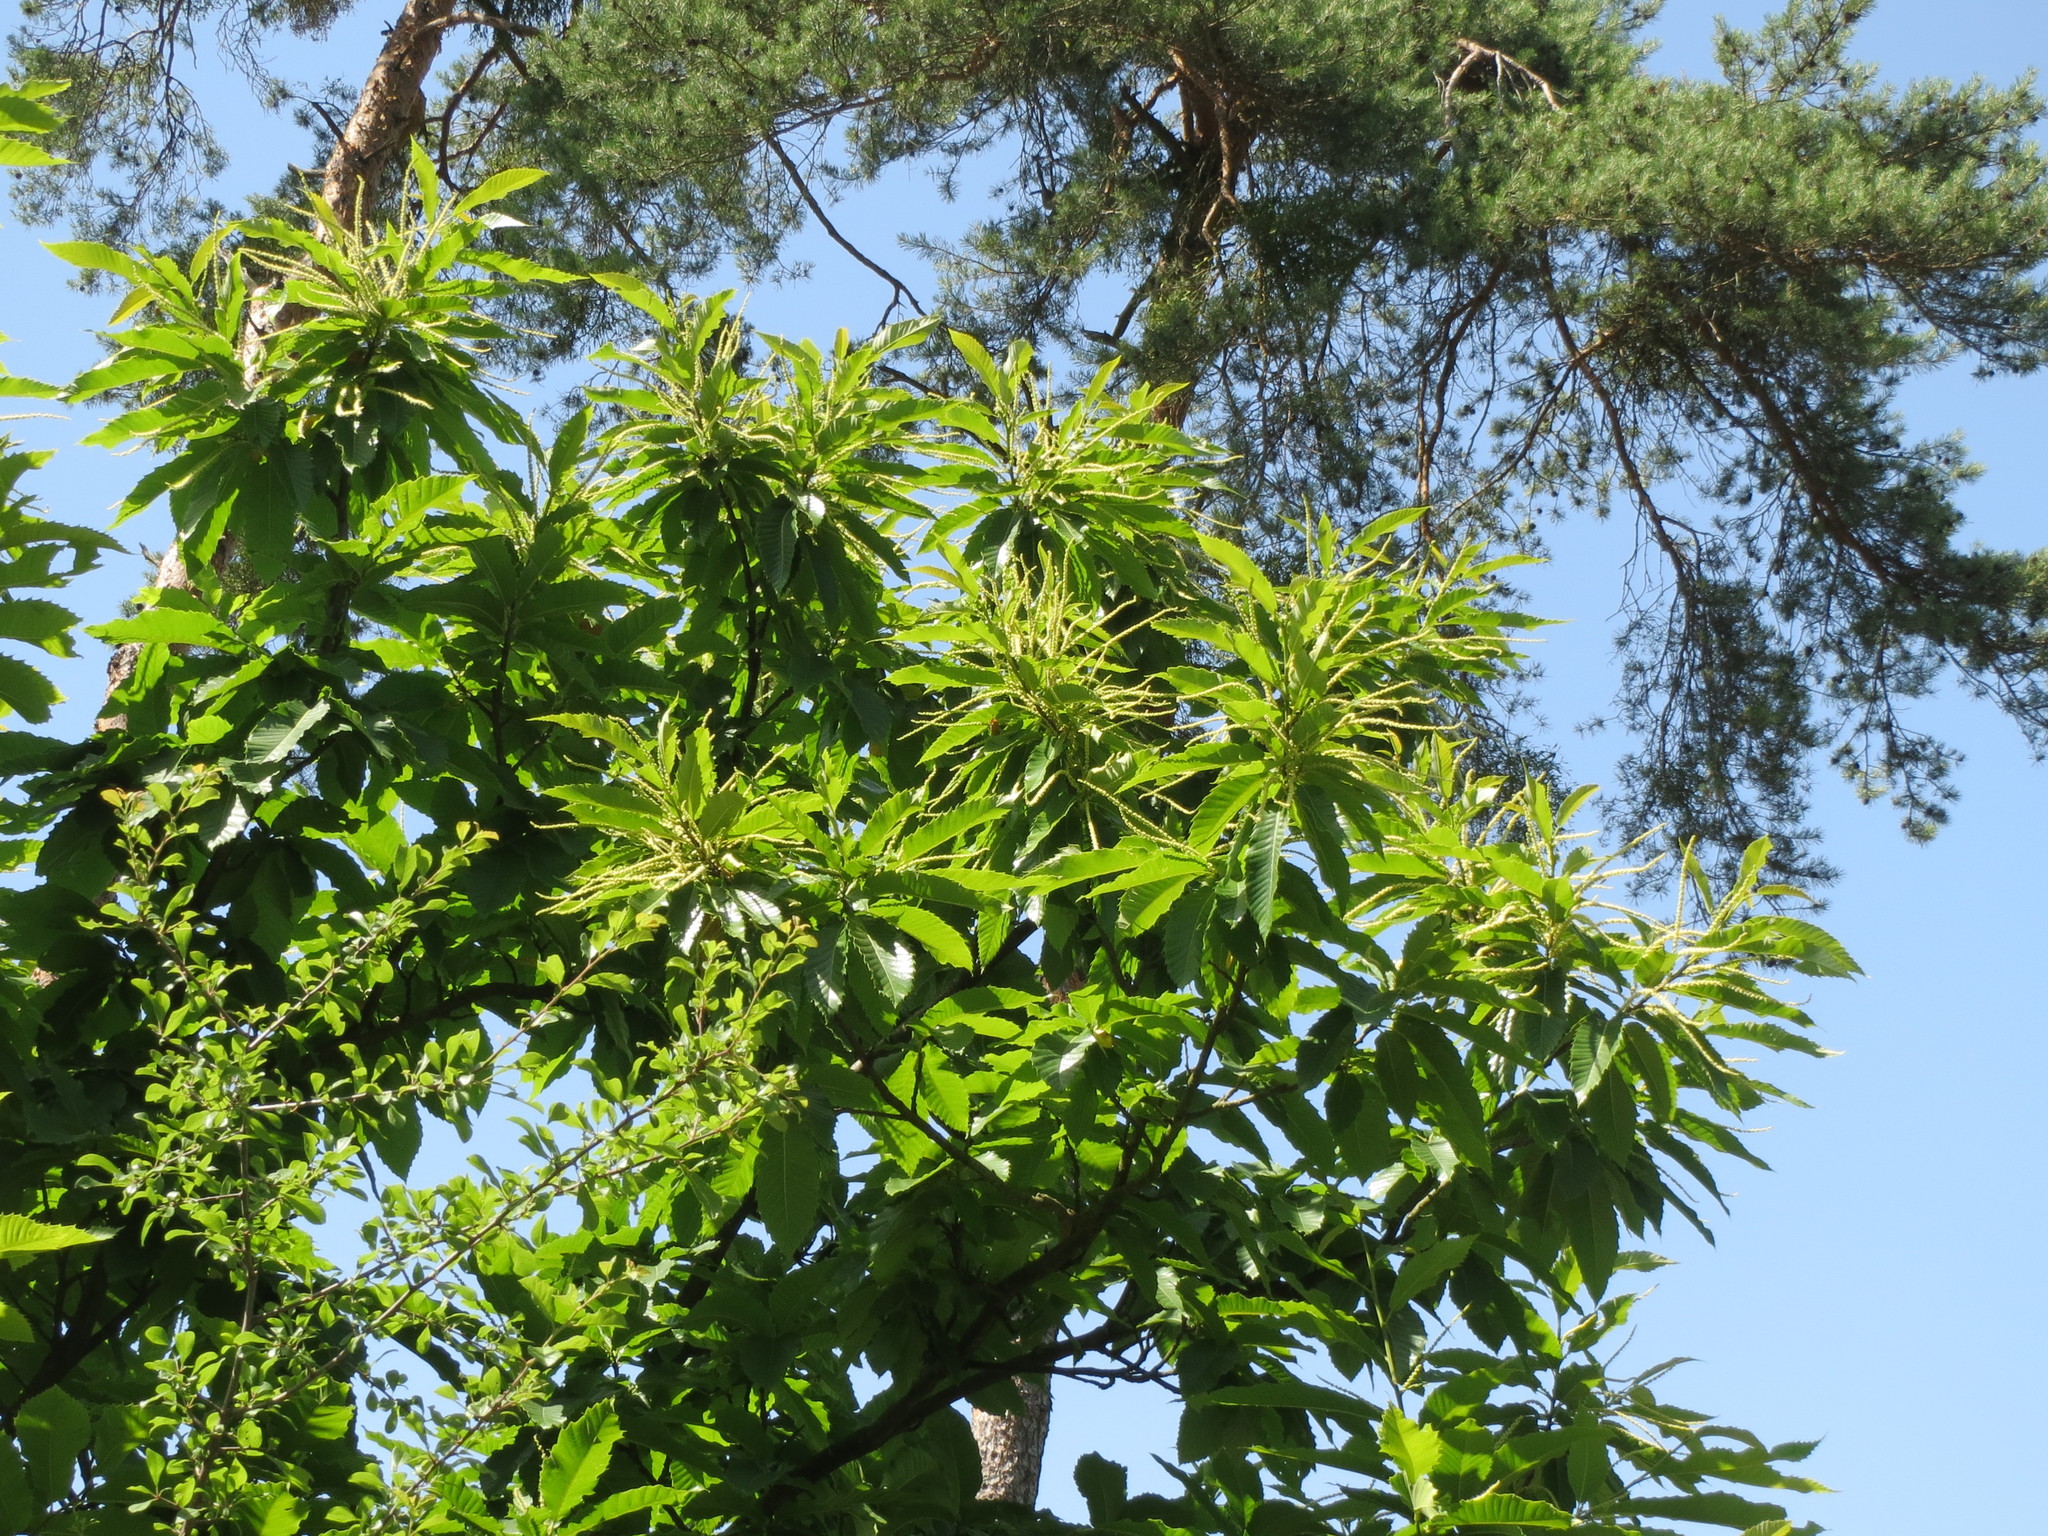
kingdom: Plantae
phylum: Tracheophyta
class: Magnoliopsida
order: Fagales
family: Fagaceae
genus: Castanea
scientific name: Castanea sativa
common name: Sweet chestnut
